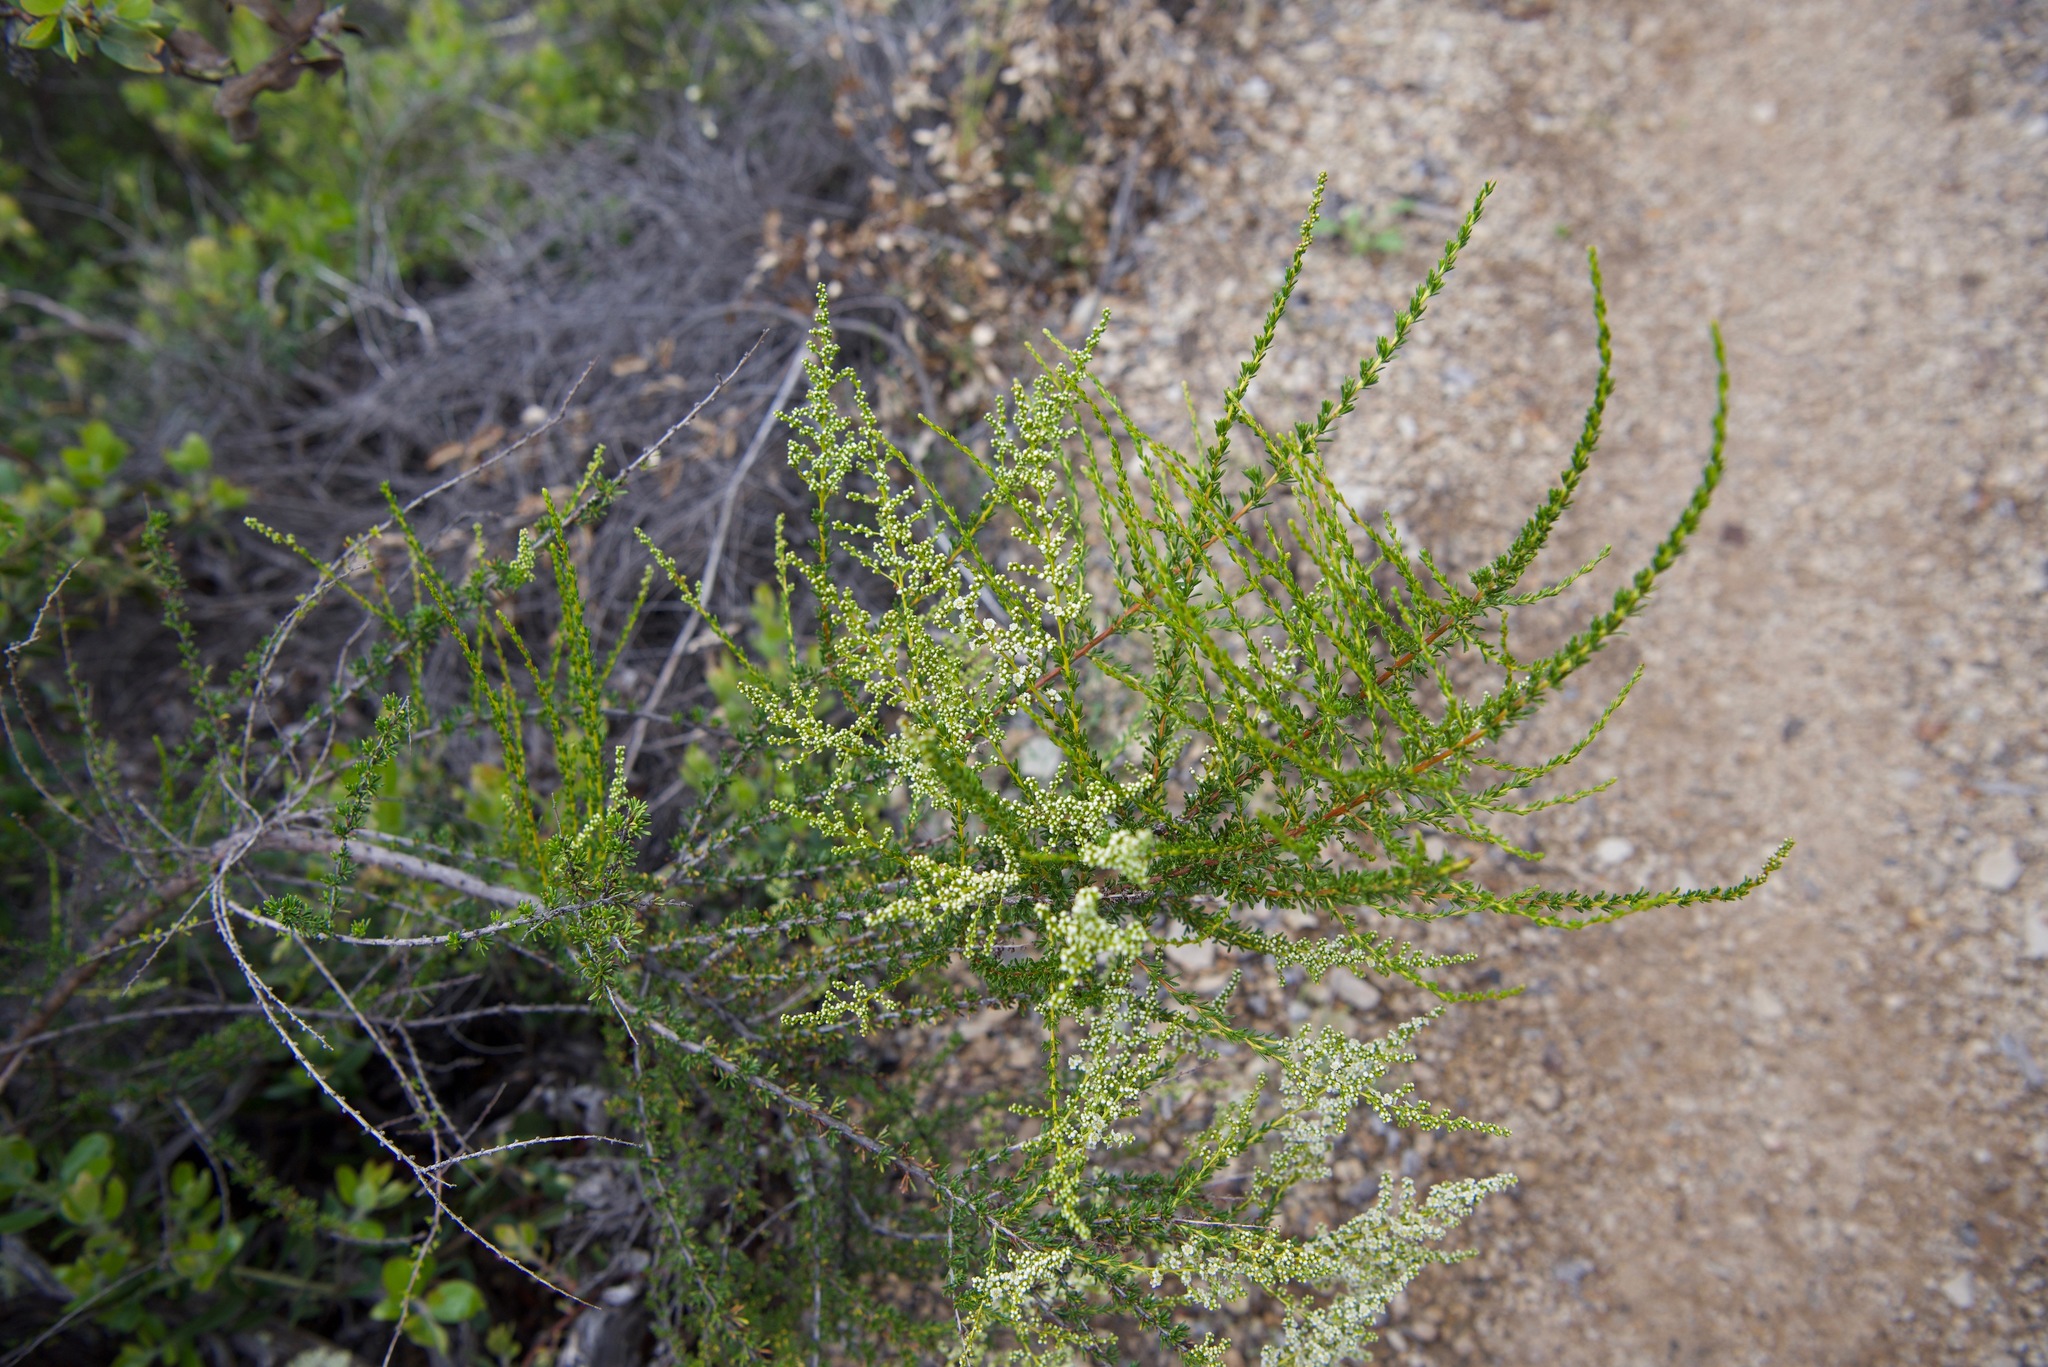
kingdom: Plantae
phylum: Tracheophyta
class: Magnoliopsida
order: Rosales
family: Rosaceae
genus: Adenostoma
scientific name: Adenostoma fasciculatum
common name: Chamise
